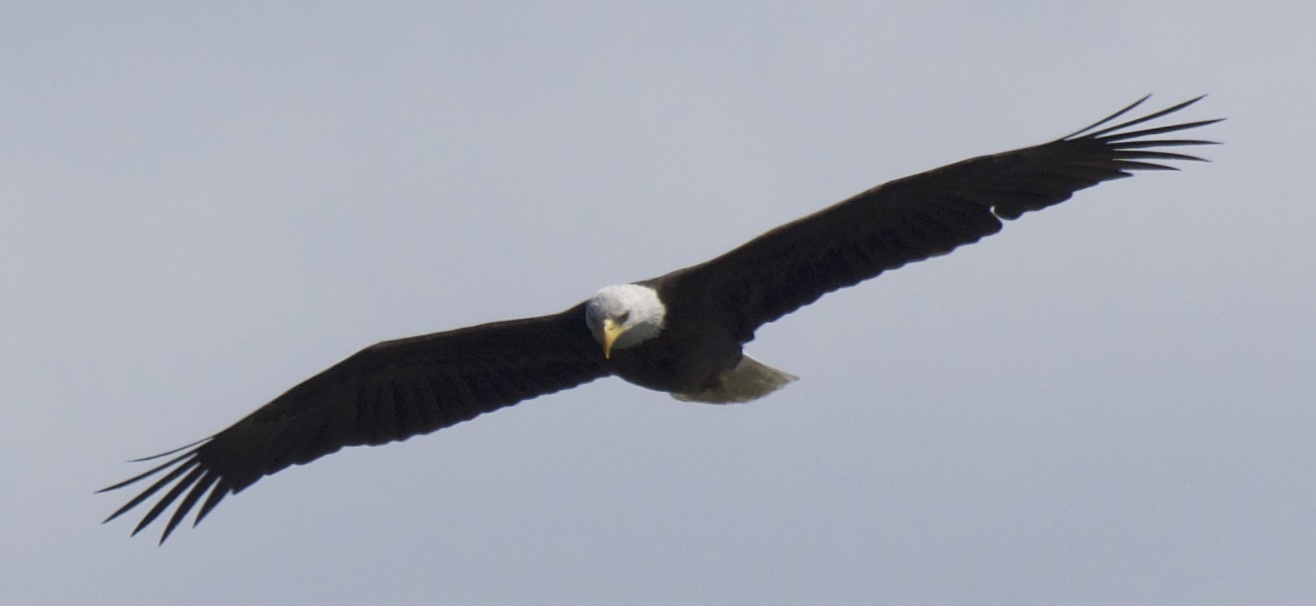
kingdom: Animalia
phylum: Chordata
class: Aves
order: Accipitriformes
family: Accipitridae
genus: Haliaeetus
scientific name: Haliaeetus leucocephalus
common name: Bald eagle
